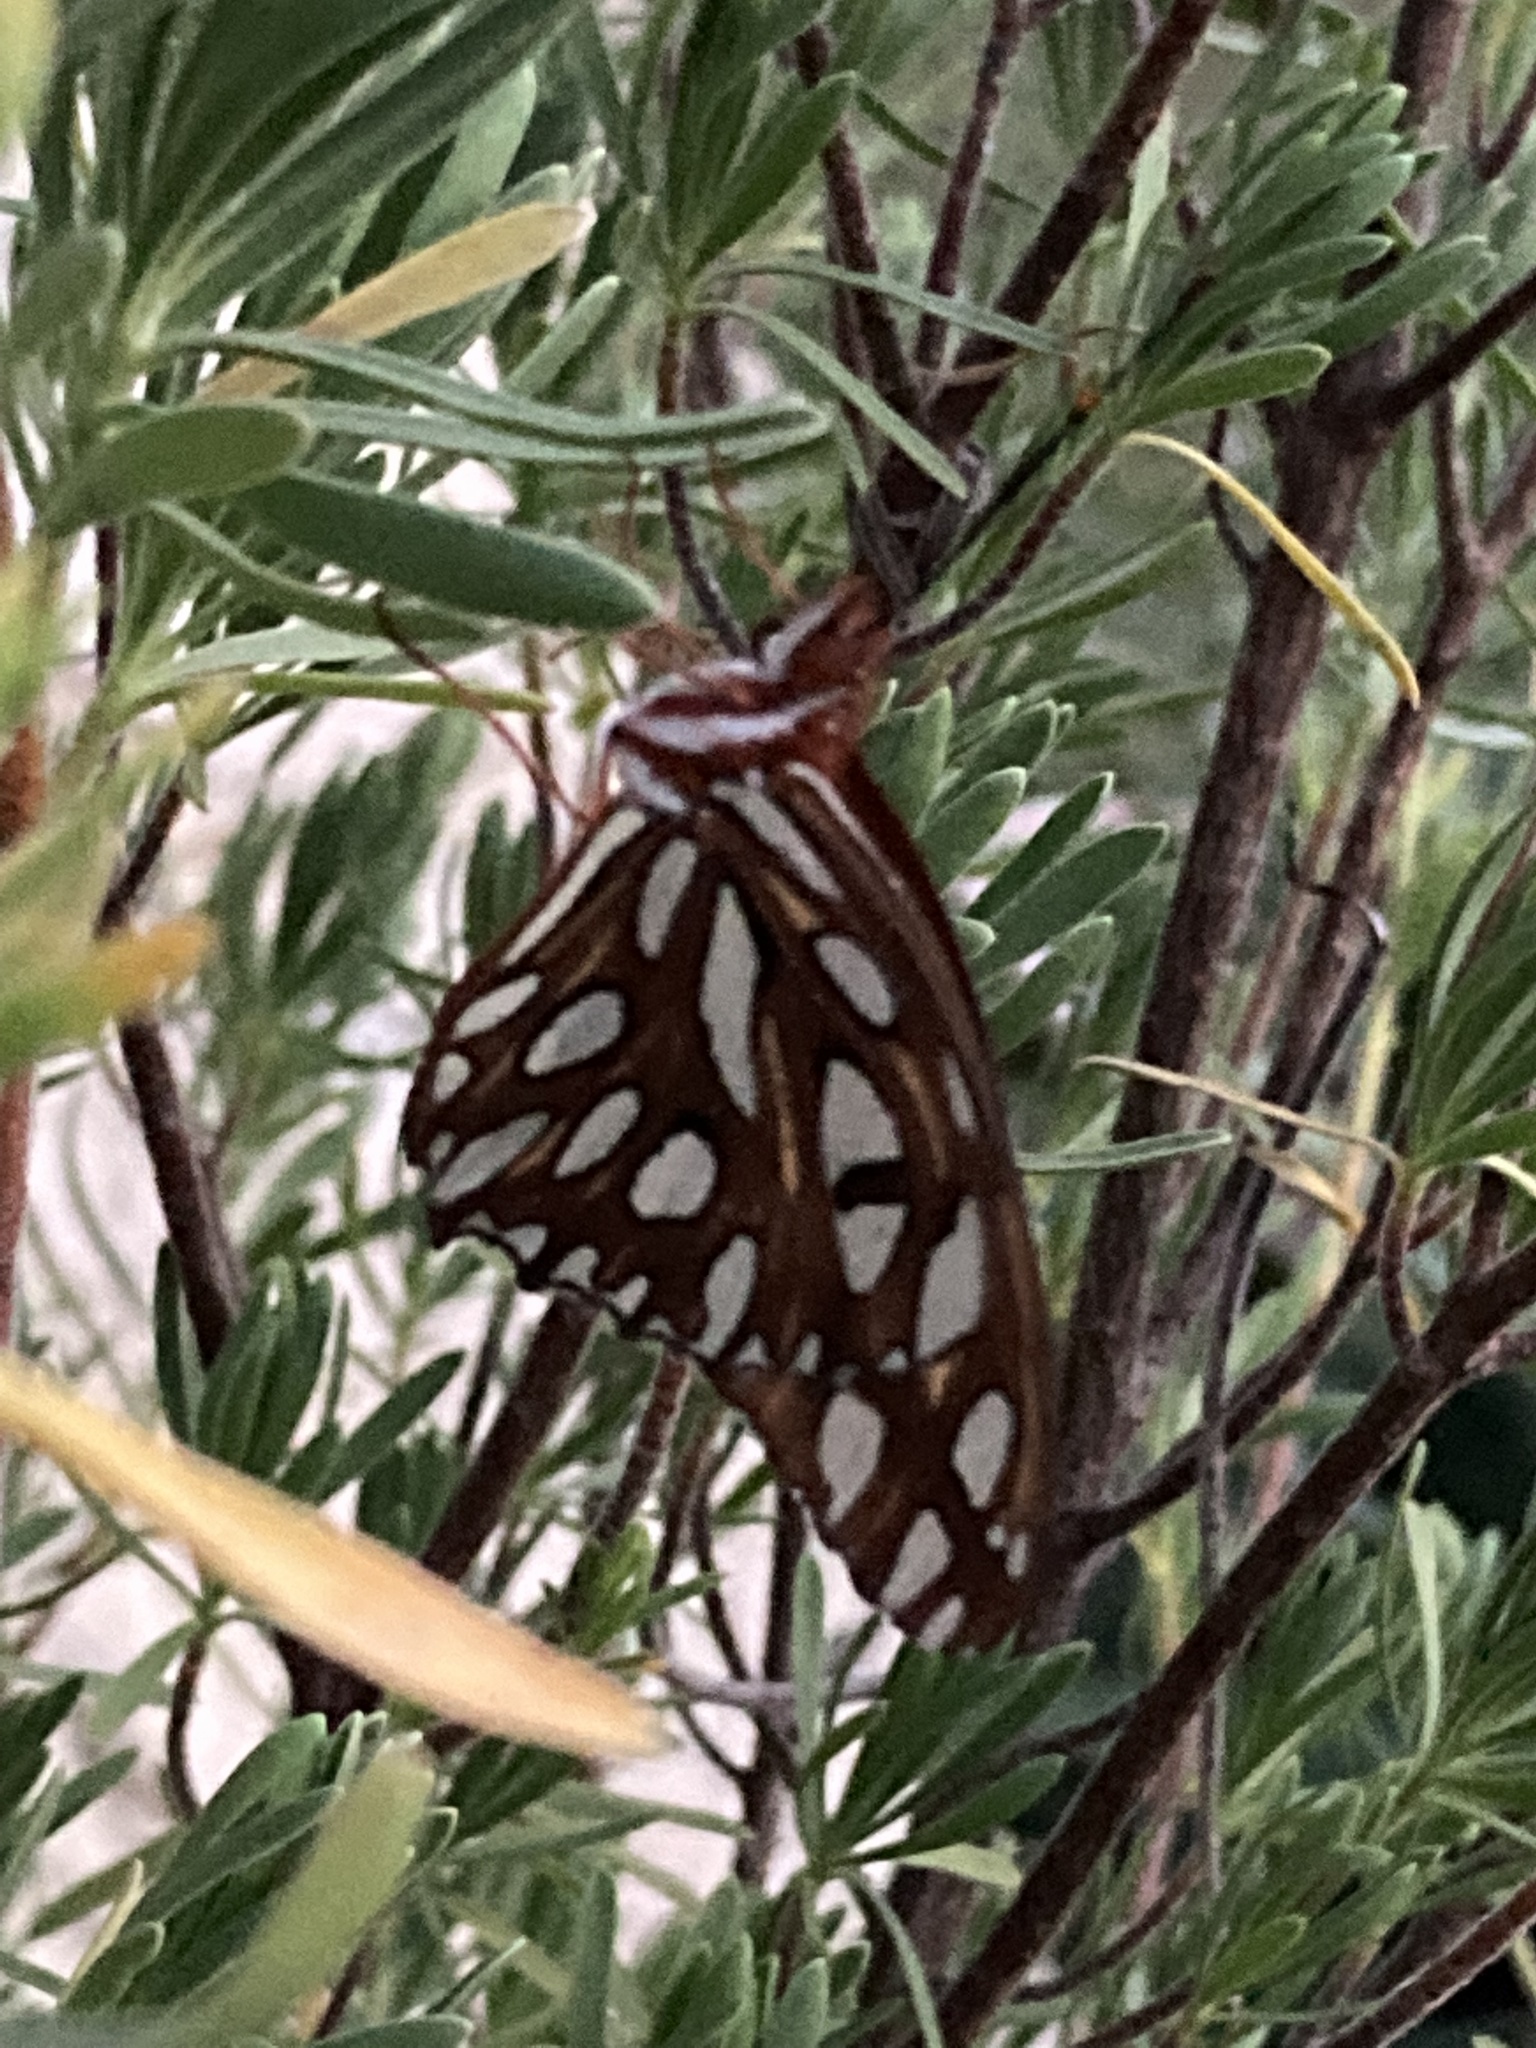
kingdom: Animalia
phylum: Arthropoda
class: Insecta
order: Lepidoptera
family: Nymphalidae
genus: Dione
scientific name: Dione vanillae
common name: Gulf fritillary
